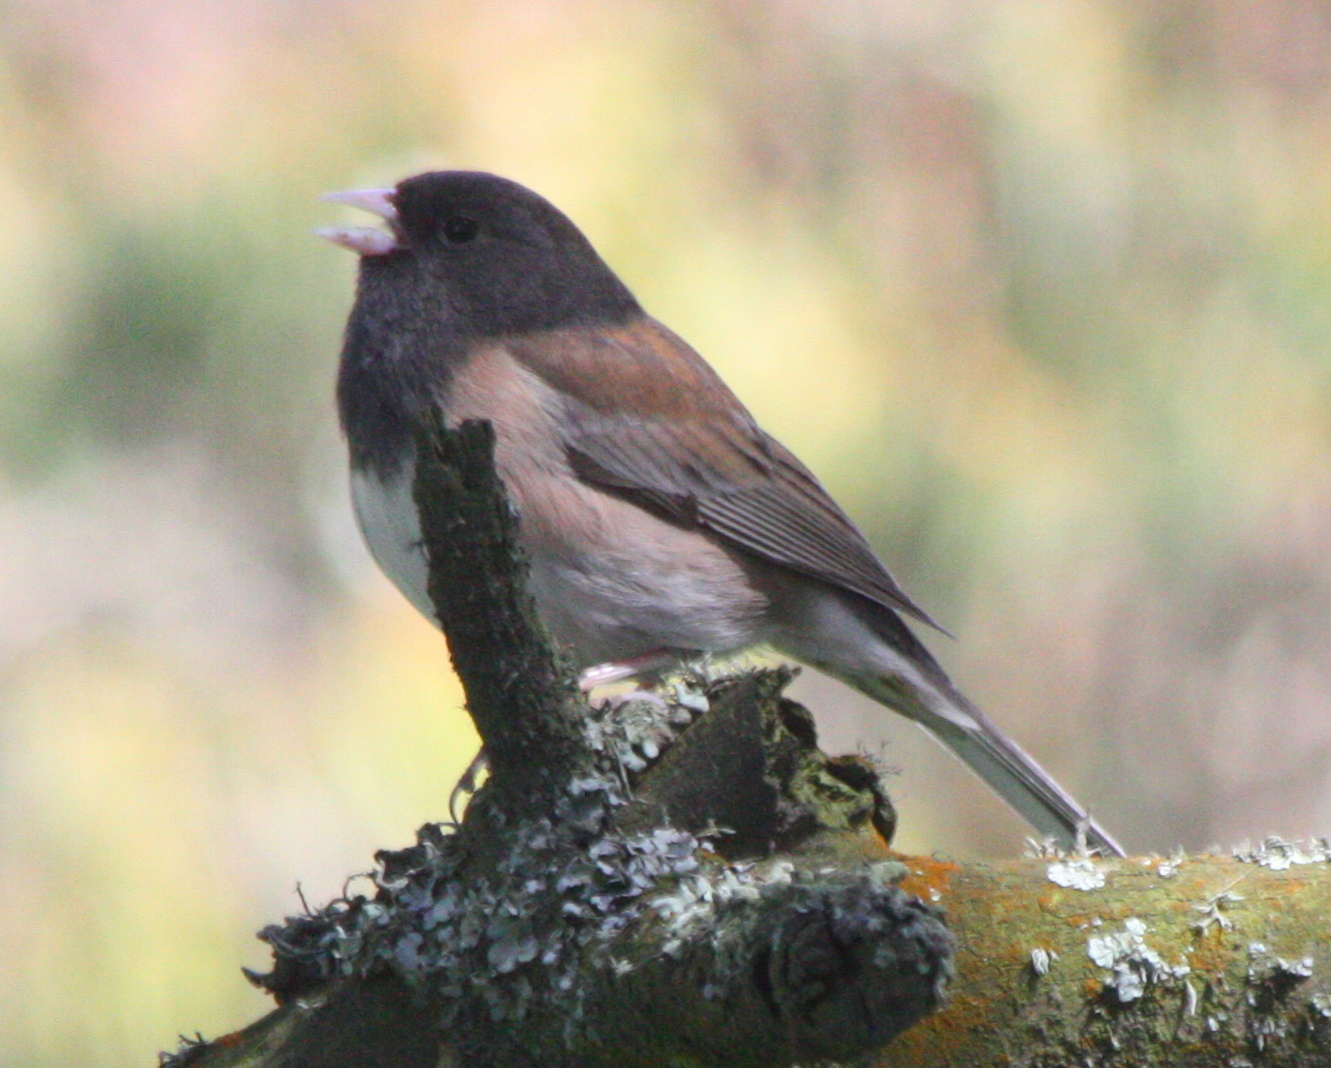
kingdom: Animalia
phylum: Chordata
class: Aves
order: Passeriformes
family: Passerellidae
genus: Junco
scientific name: Junco hyemalis
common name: Dark-eyed junco
